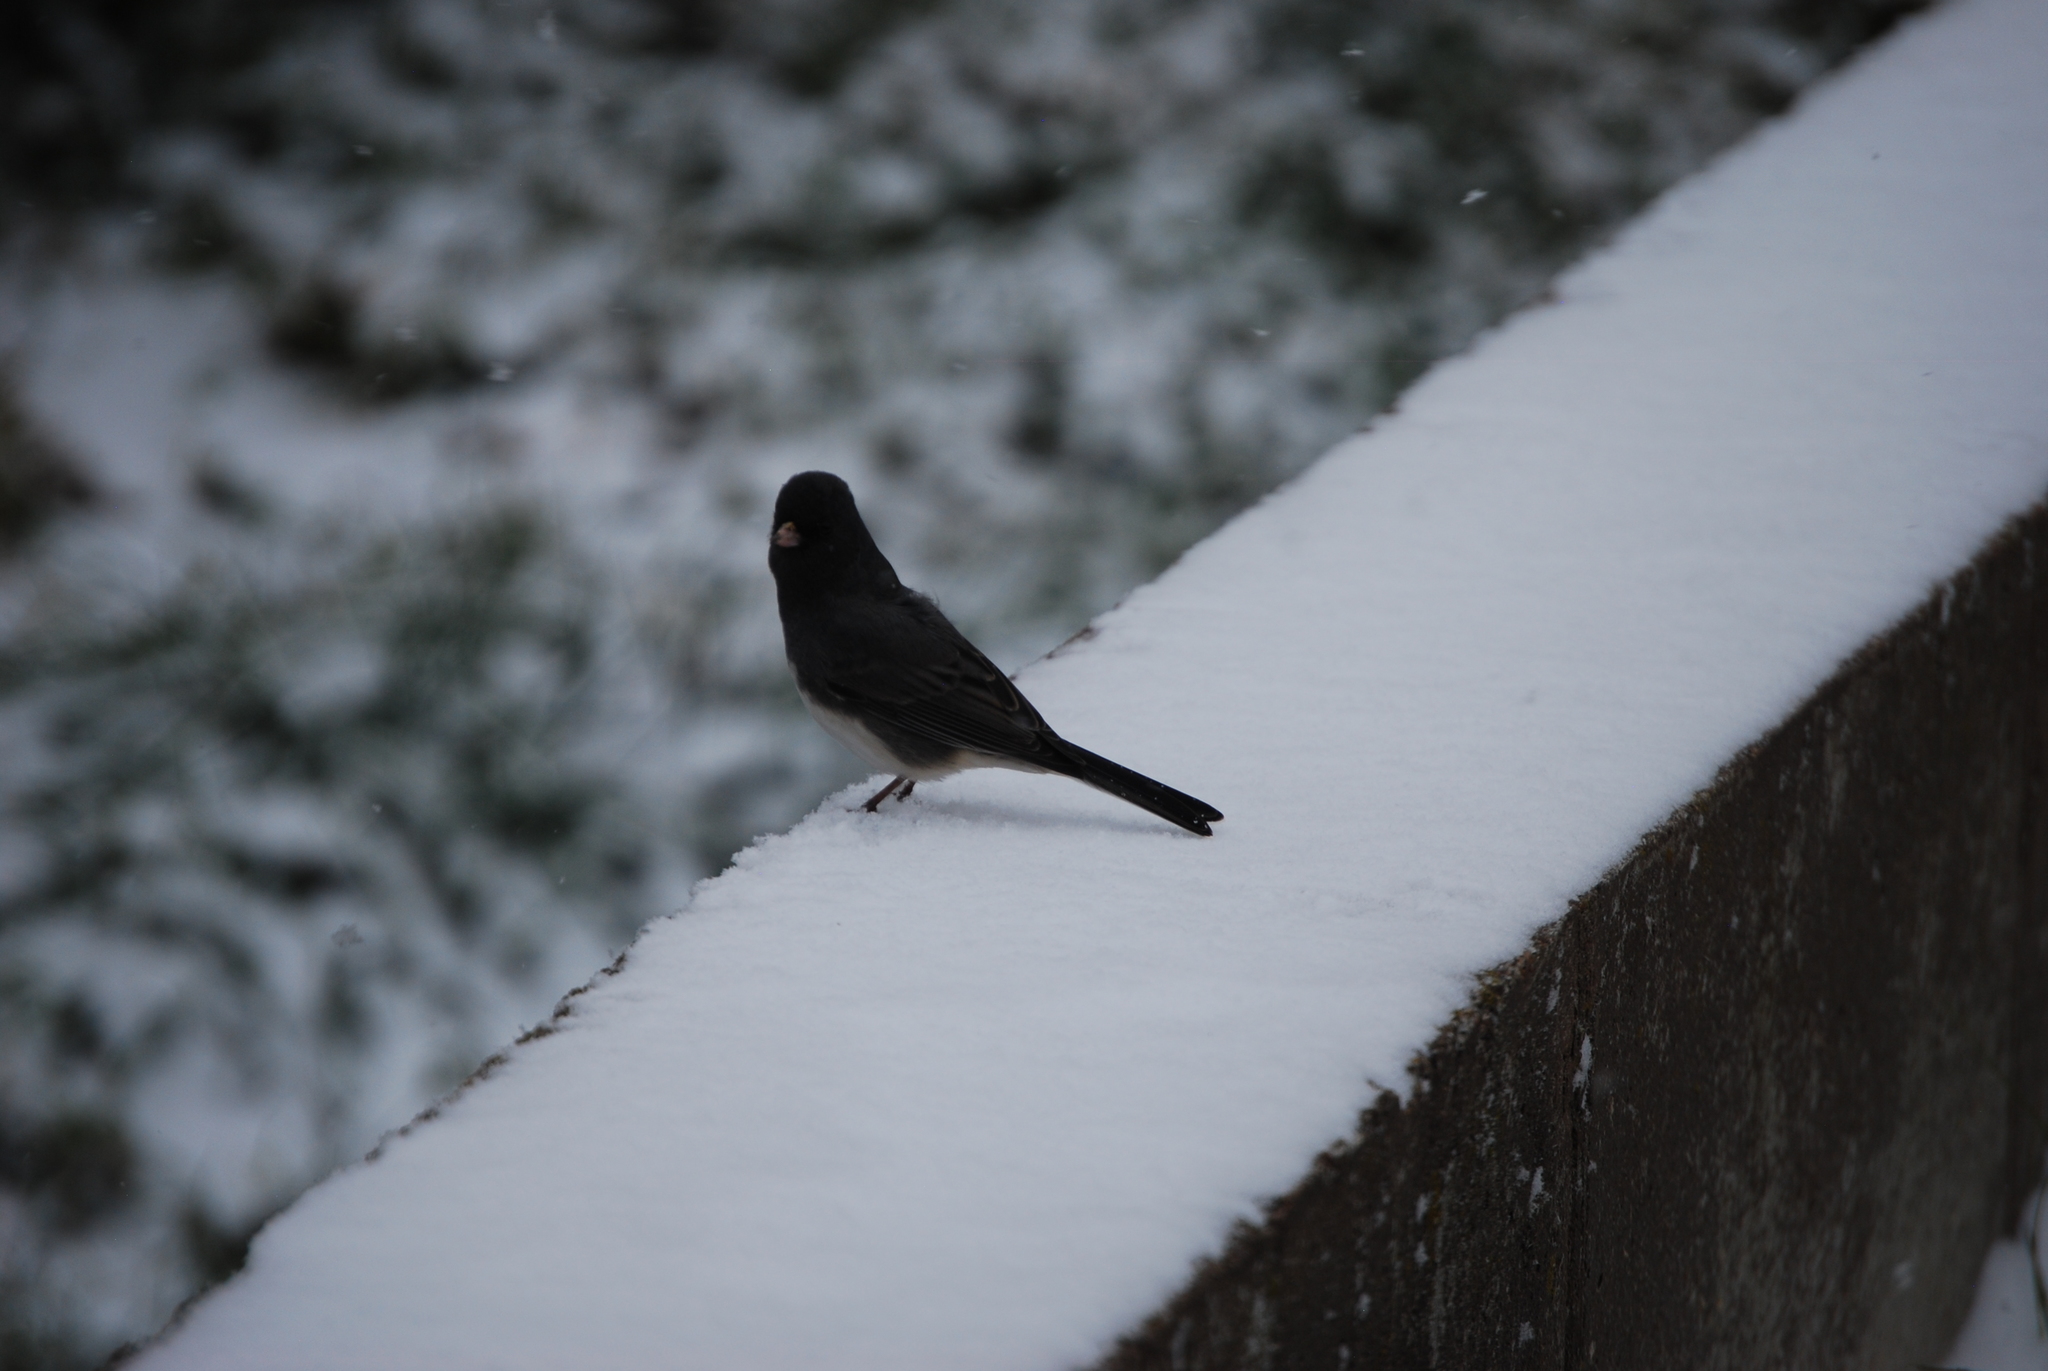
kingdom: Animalia
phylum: Chordata
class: Aves
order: Passeriformes
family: Passerellidae
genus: Junco
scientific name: Junco hyemalis
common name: Dark-eyed junco
